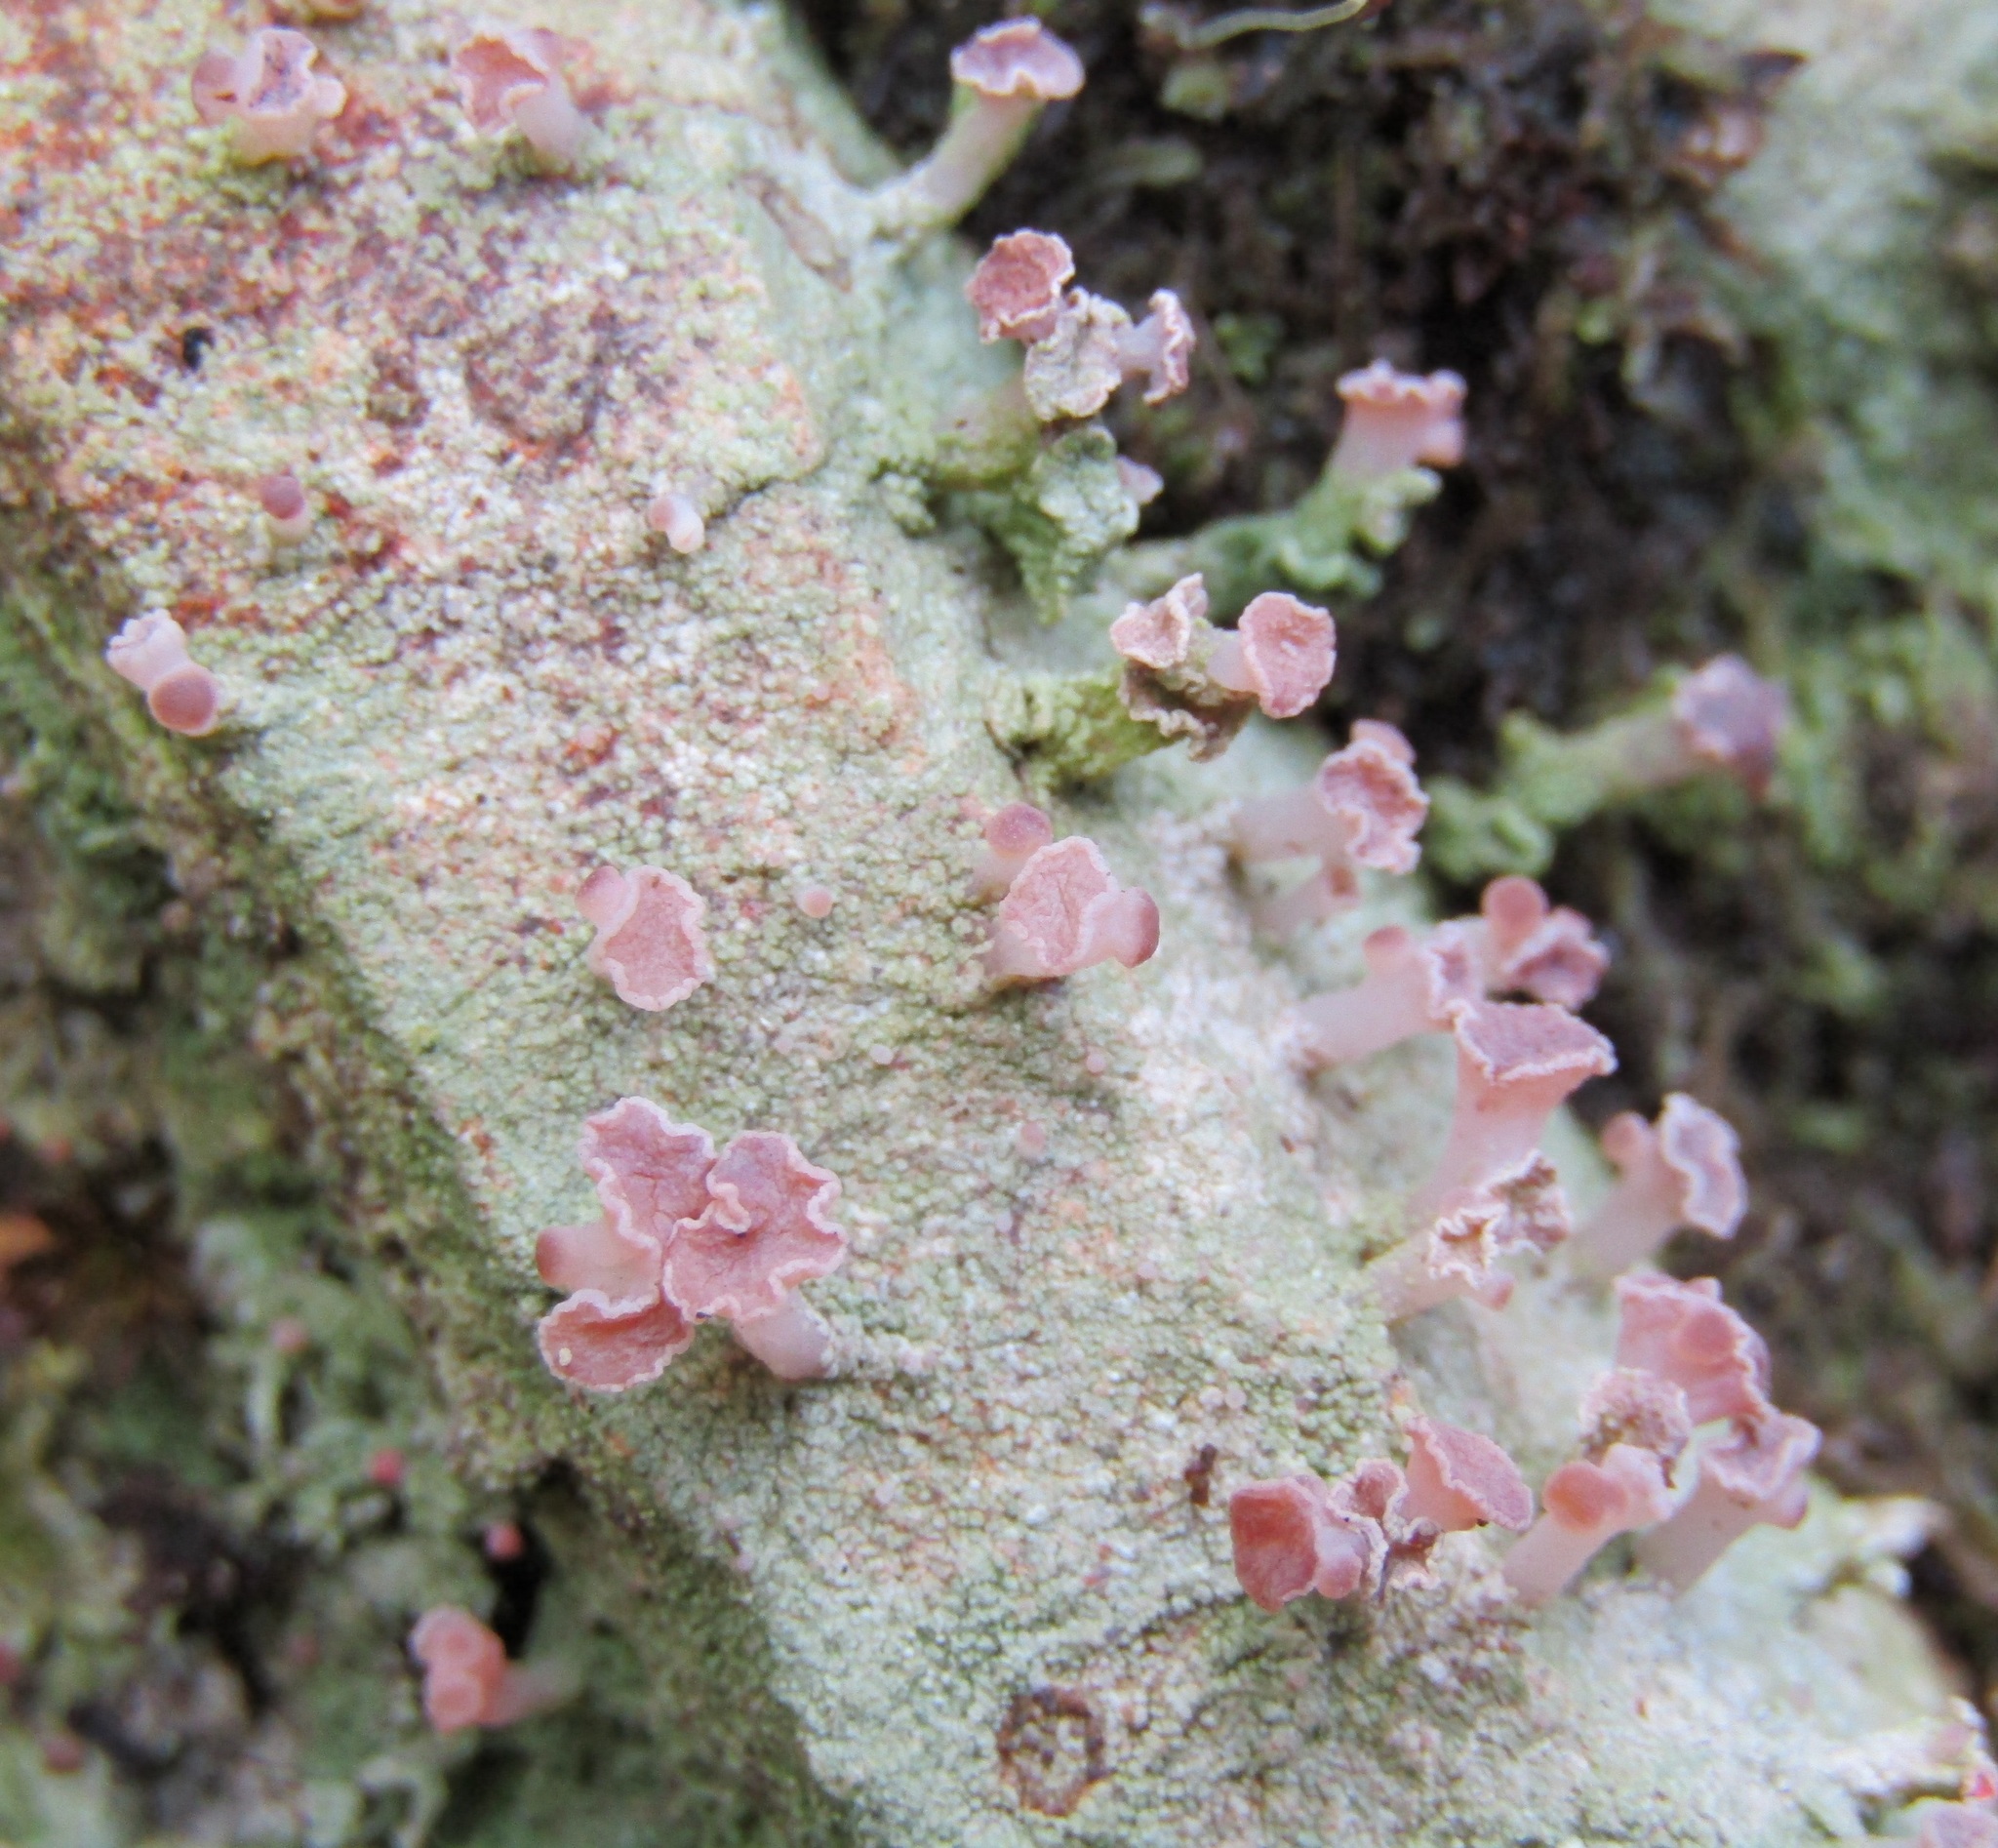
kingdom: Fungi
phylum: Ascomycota
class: Lecanoromycetes
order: Baeomycetales
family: Baeomycetaceae
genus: Baeomyces
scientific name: Baeomyces heteromorphus
